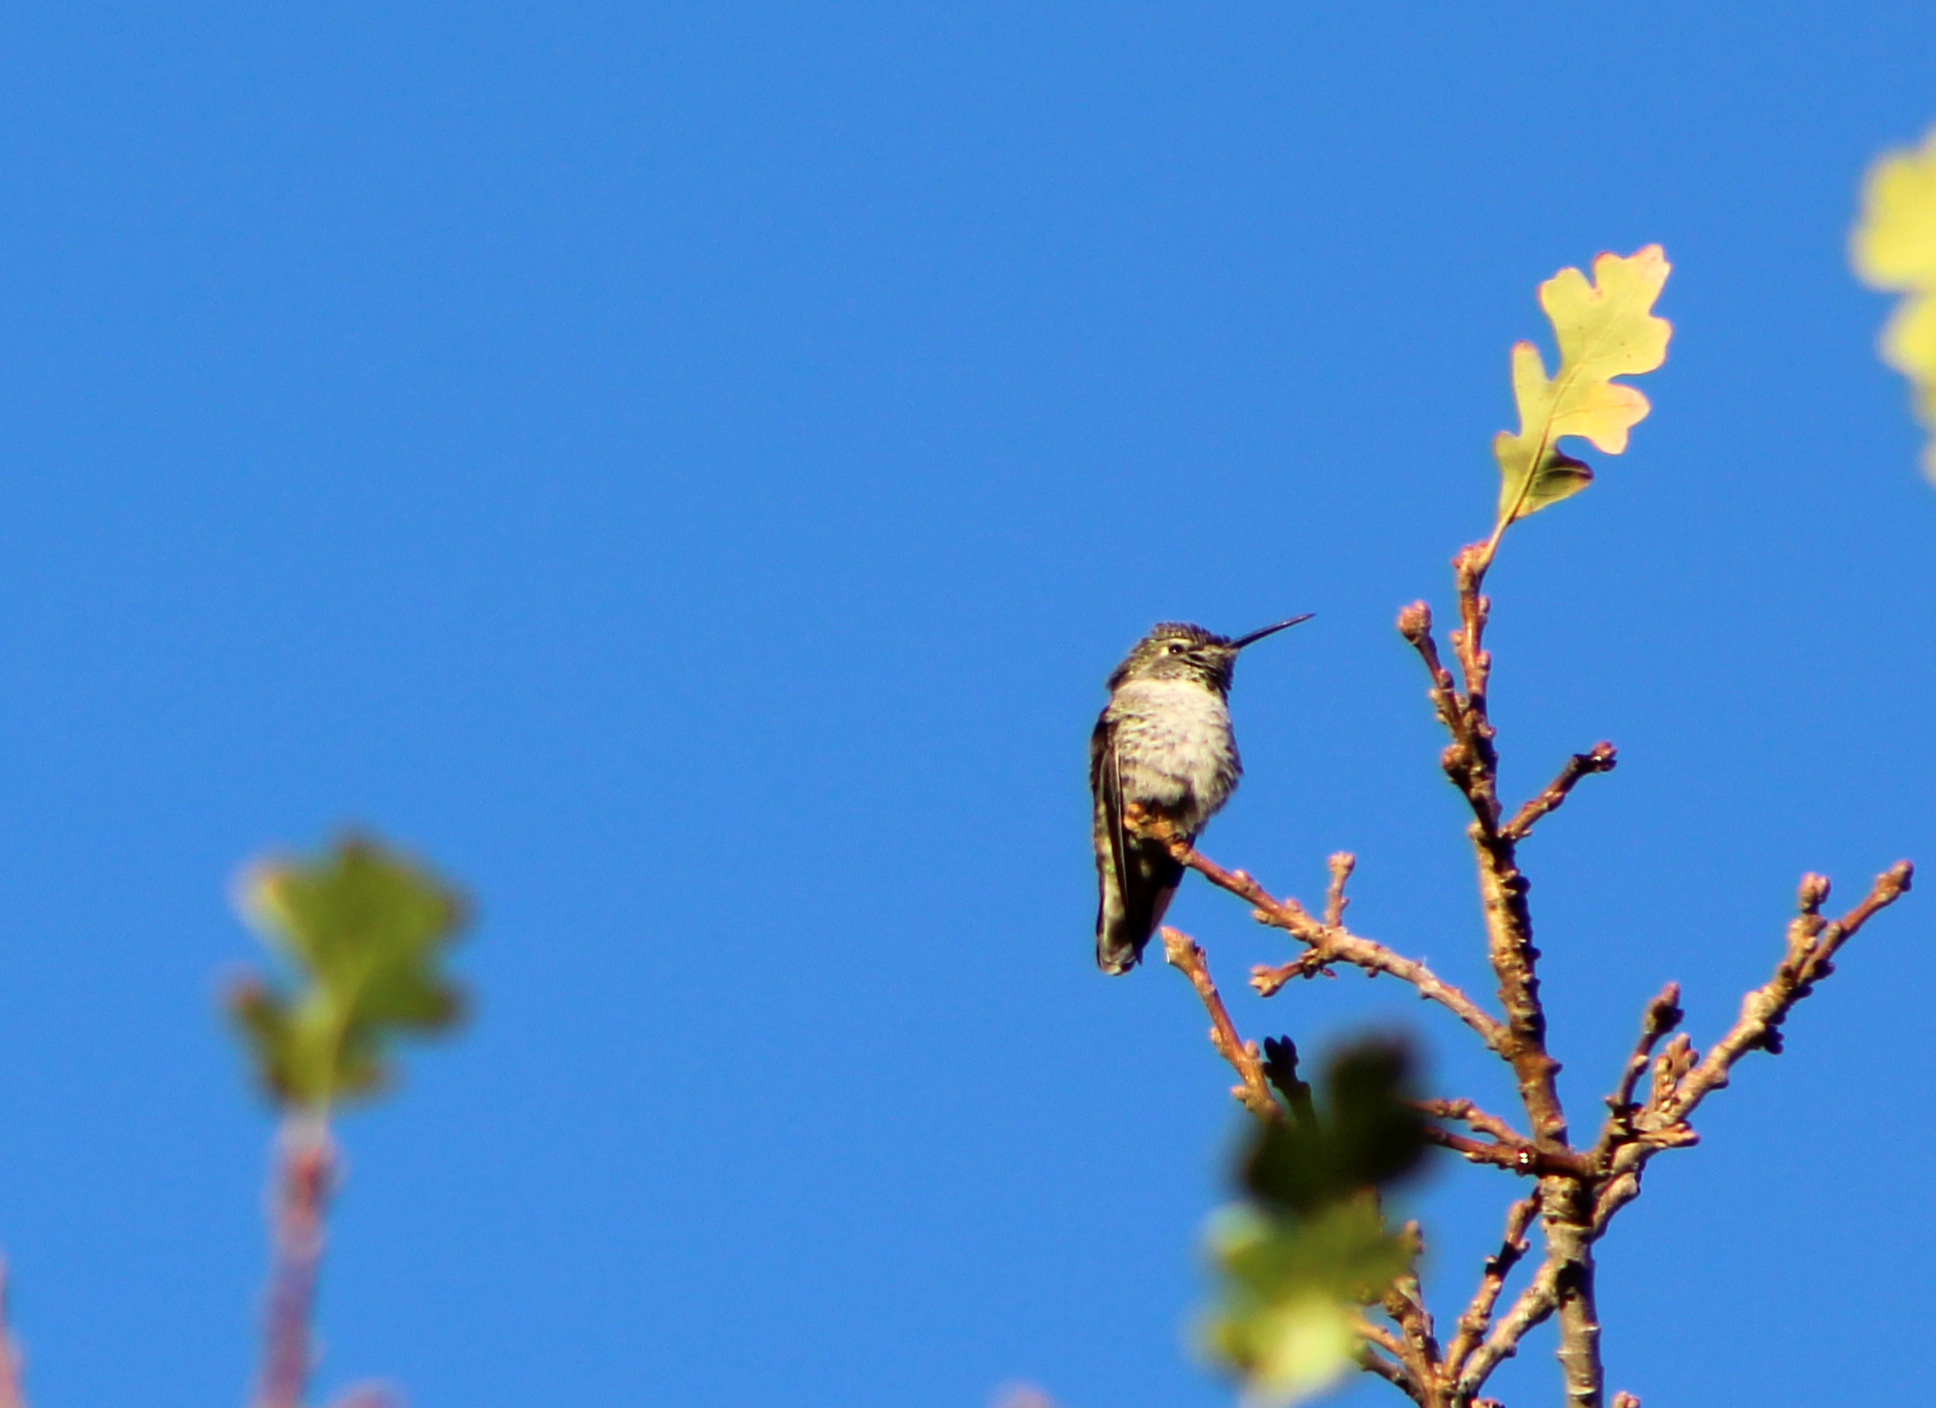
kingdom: Animalia
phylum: Chordata
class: Aves
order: Apodiformes
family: Trochilidae
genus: Calypte
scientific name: Calypte anna
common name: Anna's hummingbird
